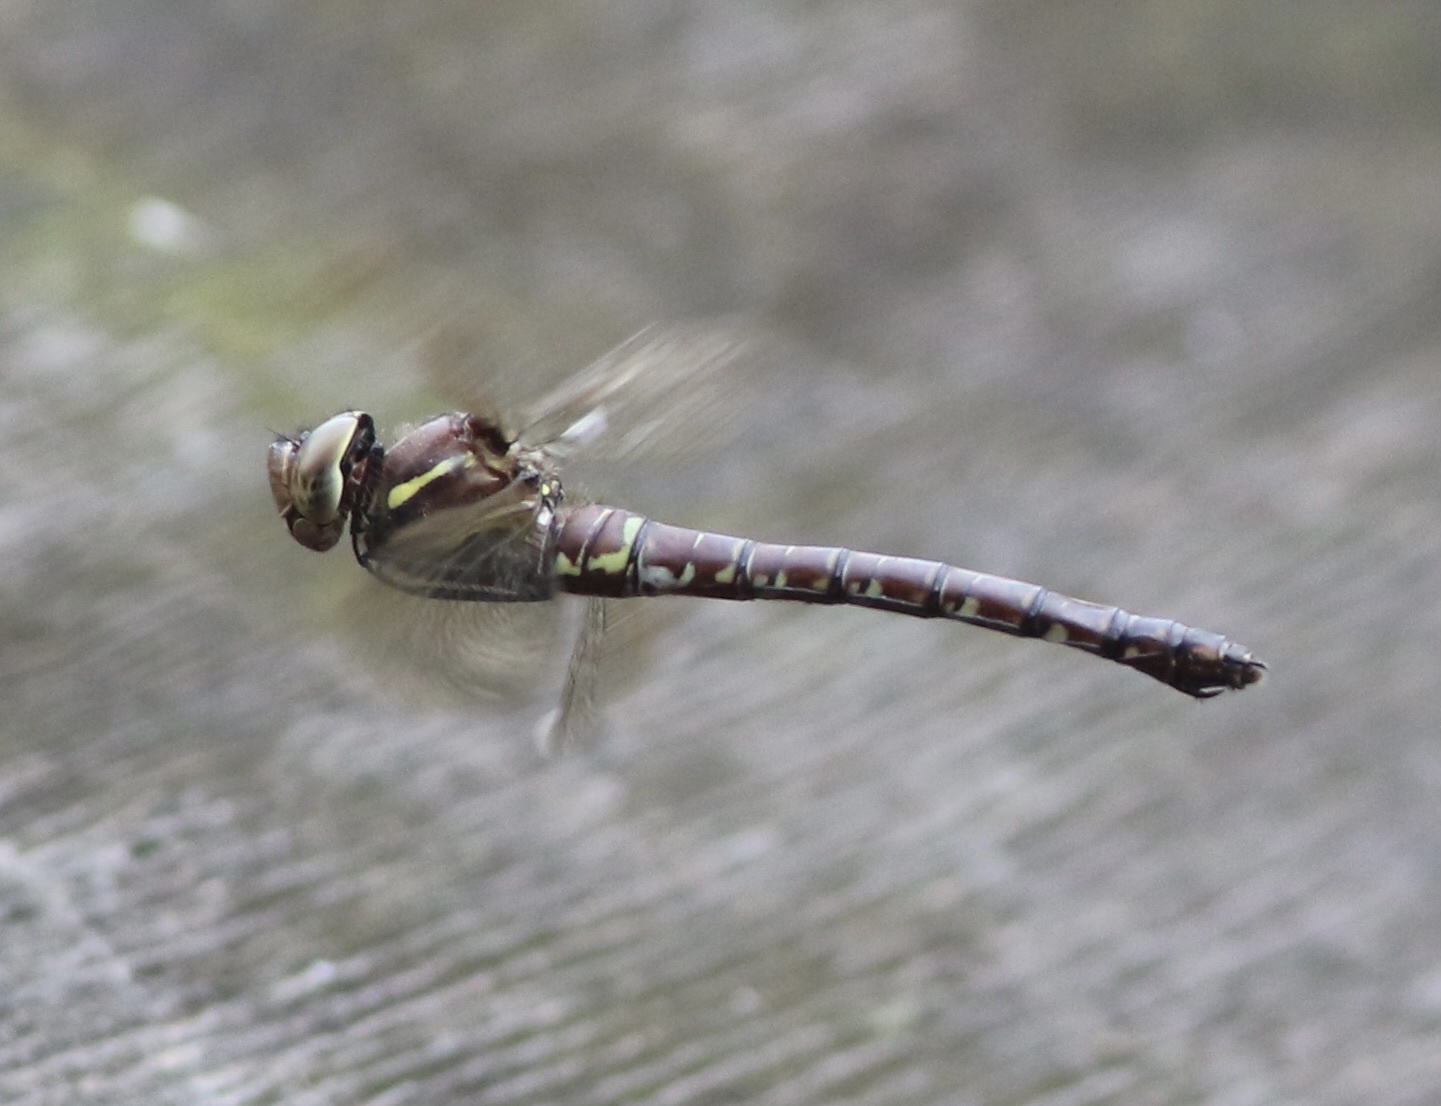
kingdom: Animalia
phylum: Arthropoda
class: Insecta
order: Odonata
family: Aeshnidae
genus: Aeshna
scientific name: Aeshna umbrosa
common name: Shadow darner
